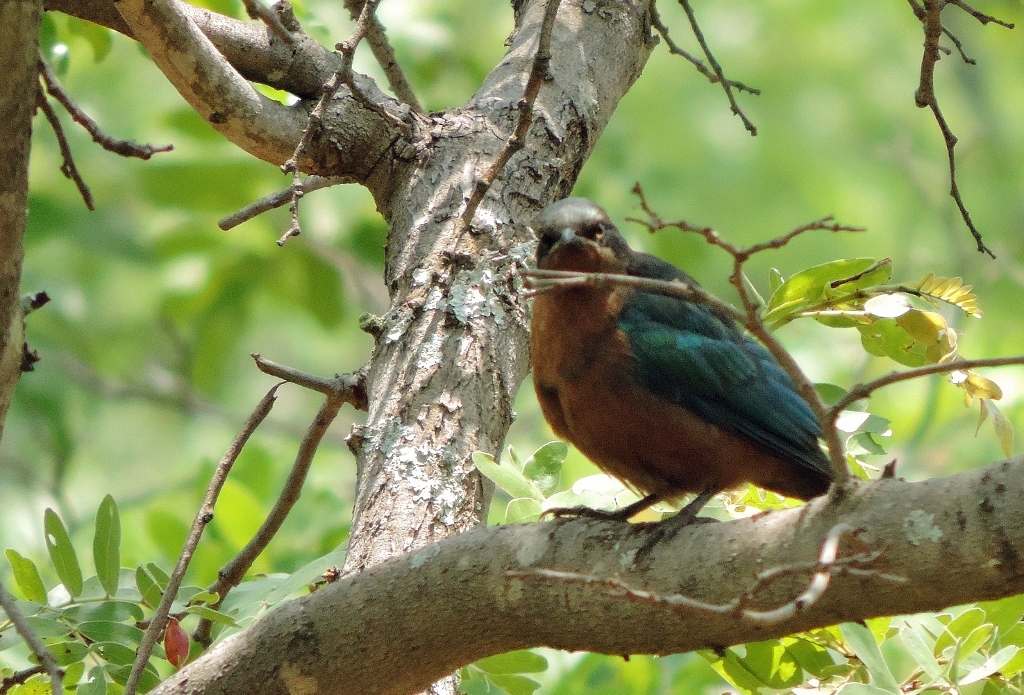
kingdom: Animalia
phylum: Chordata
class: Aves
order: Passeriformes
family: Sturnidae
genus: Lamprotornis
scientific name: Lamprotornis chloropterus
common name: Lesser blue-eared starling
